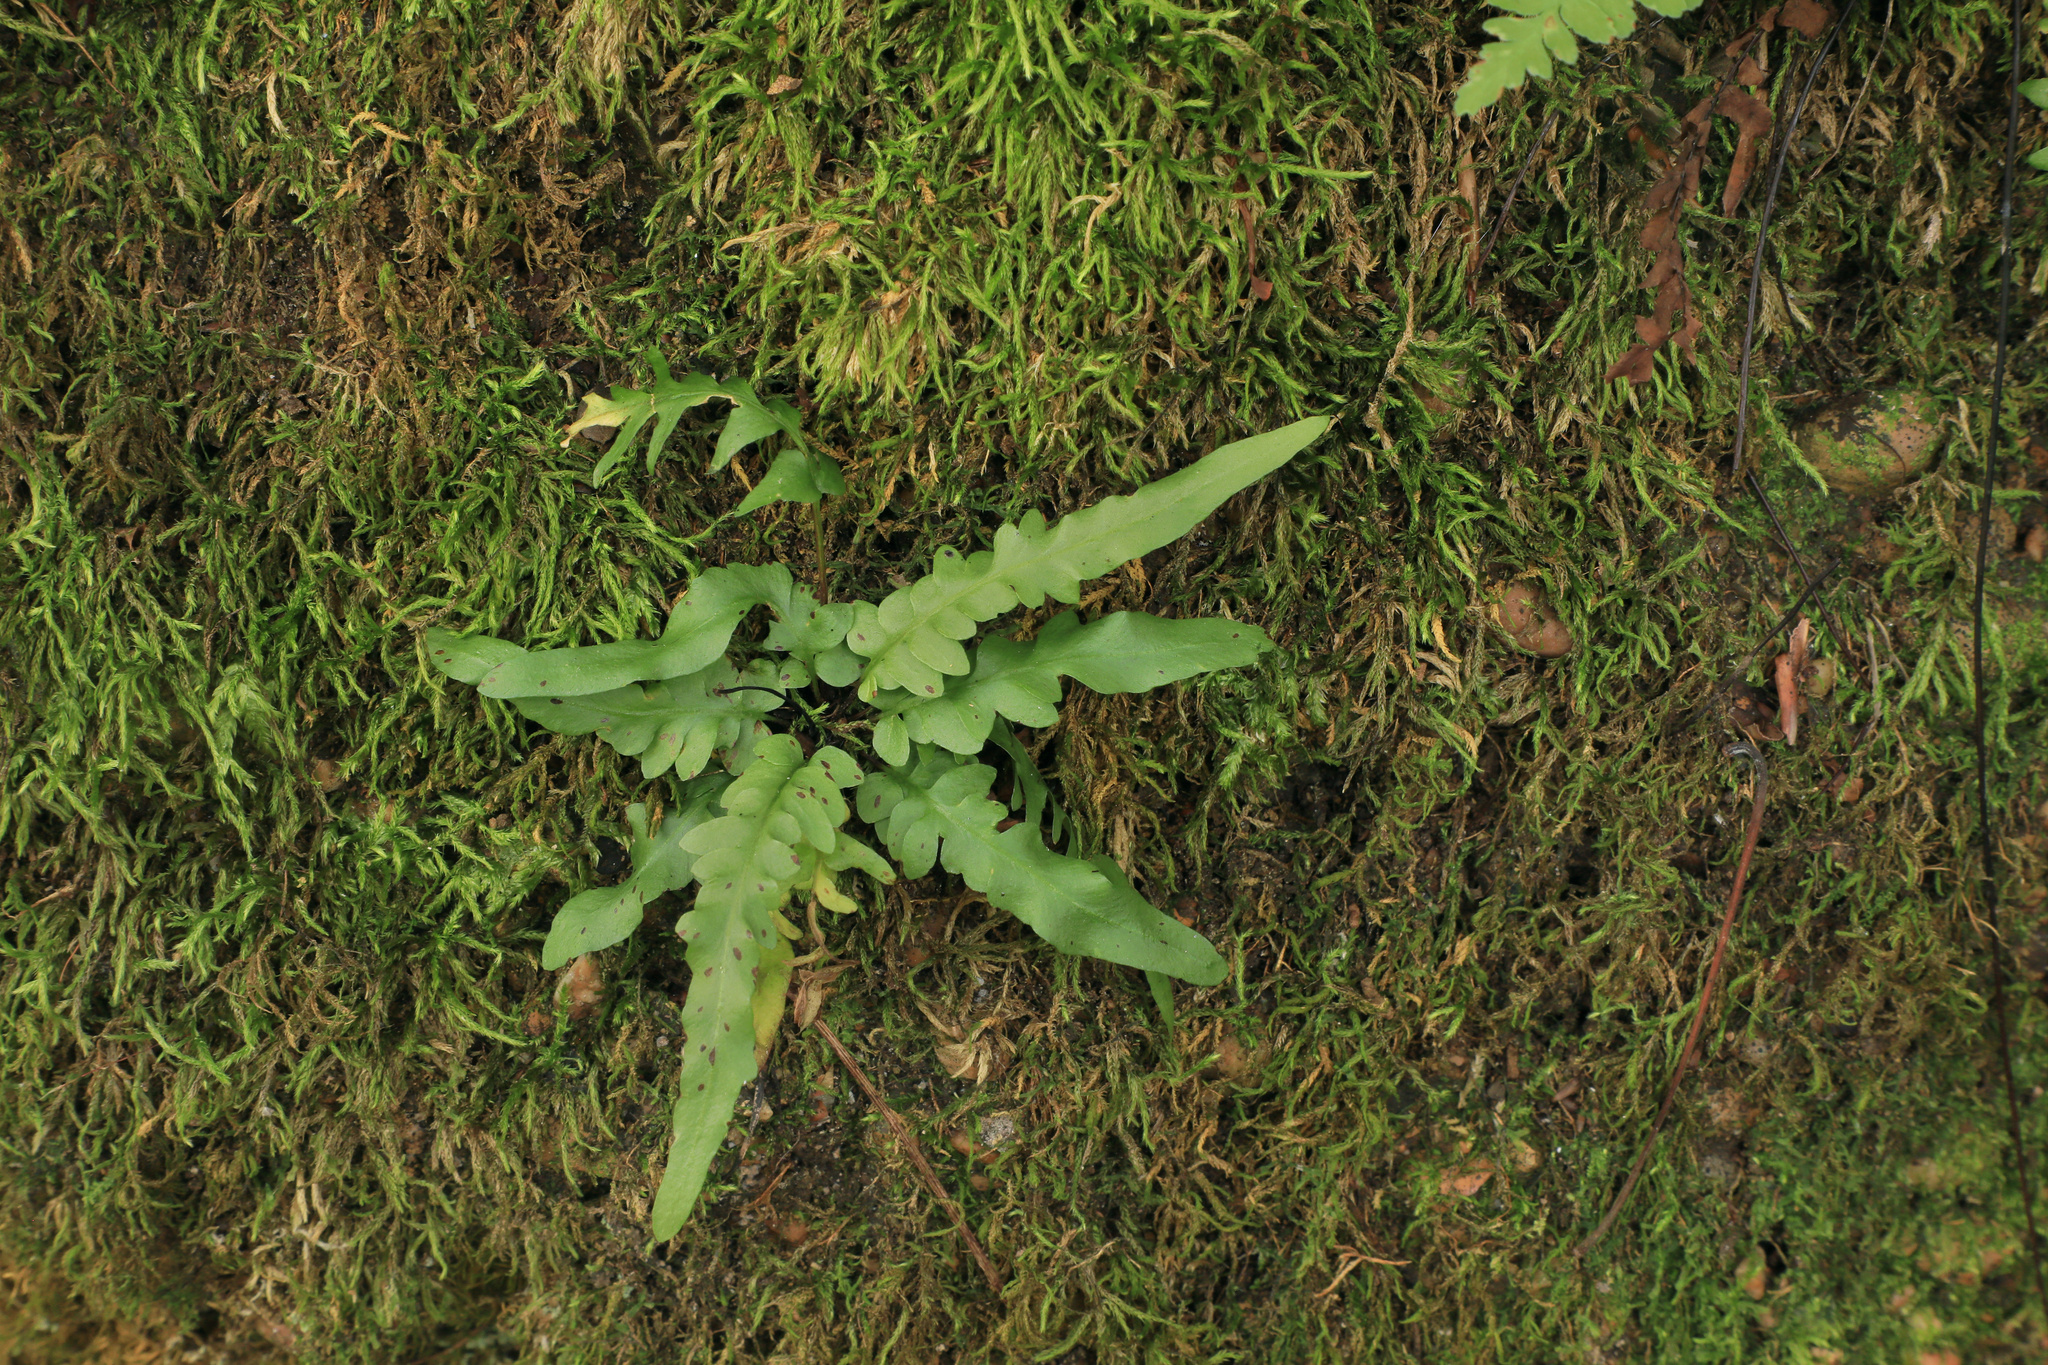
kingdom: Plantae
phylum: Tracheophyta
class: Polypodiopsida
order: Polypodiales
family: Aspleniaceae
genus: Asplenium
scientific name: Asplenium tutwilerae
